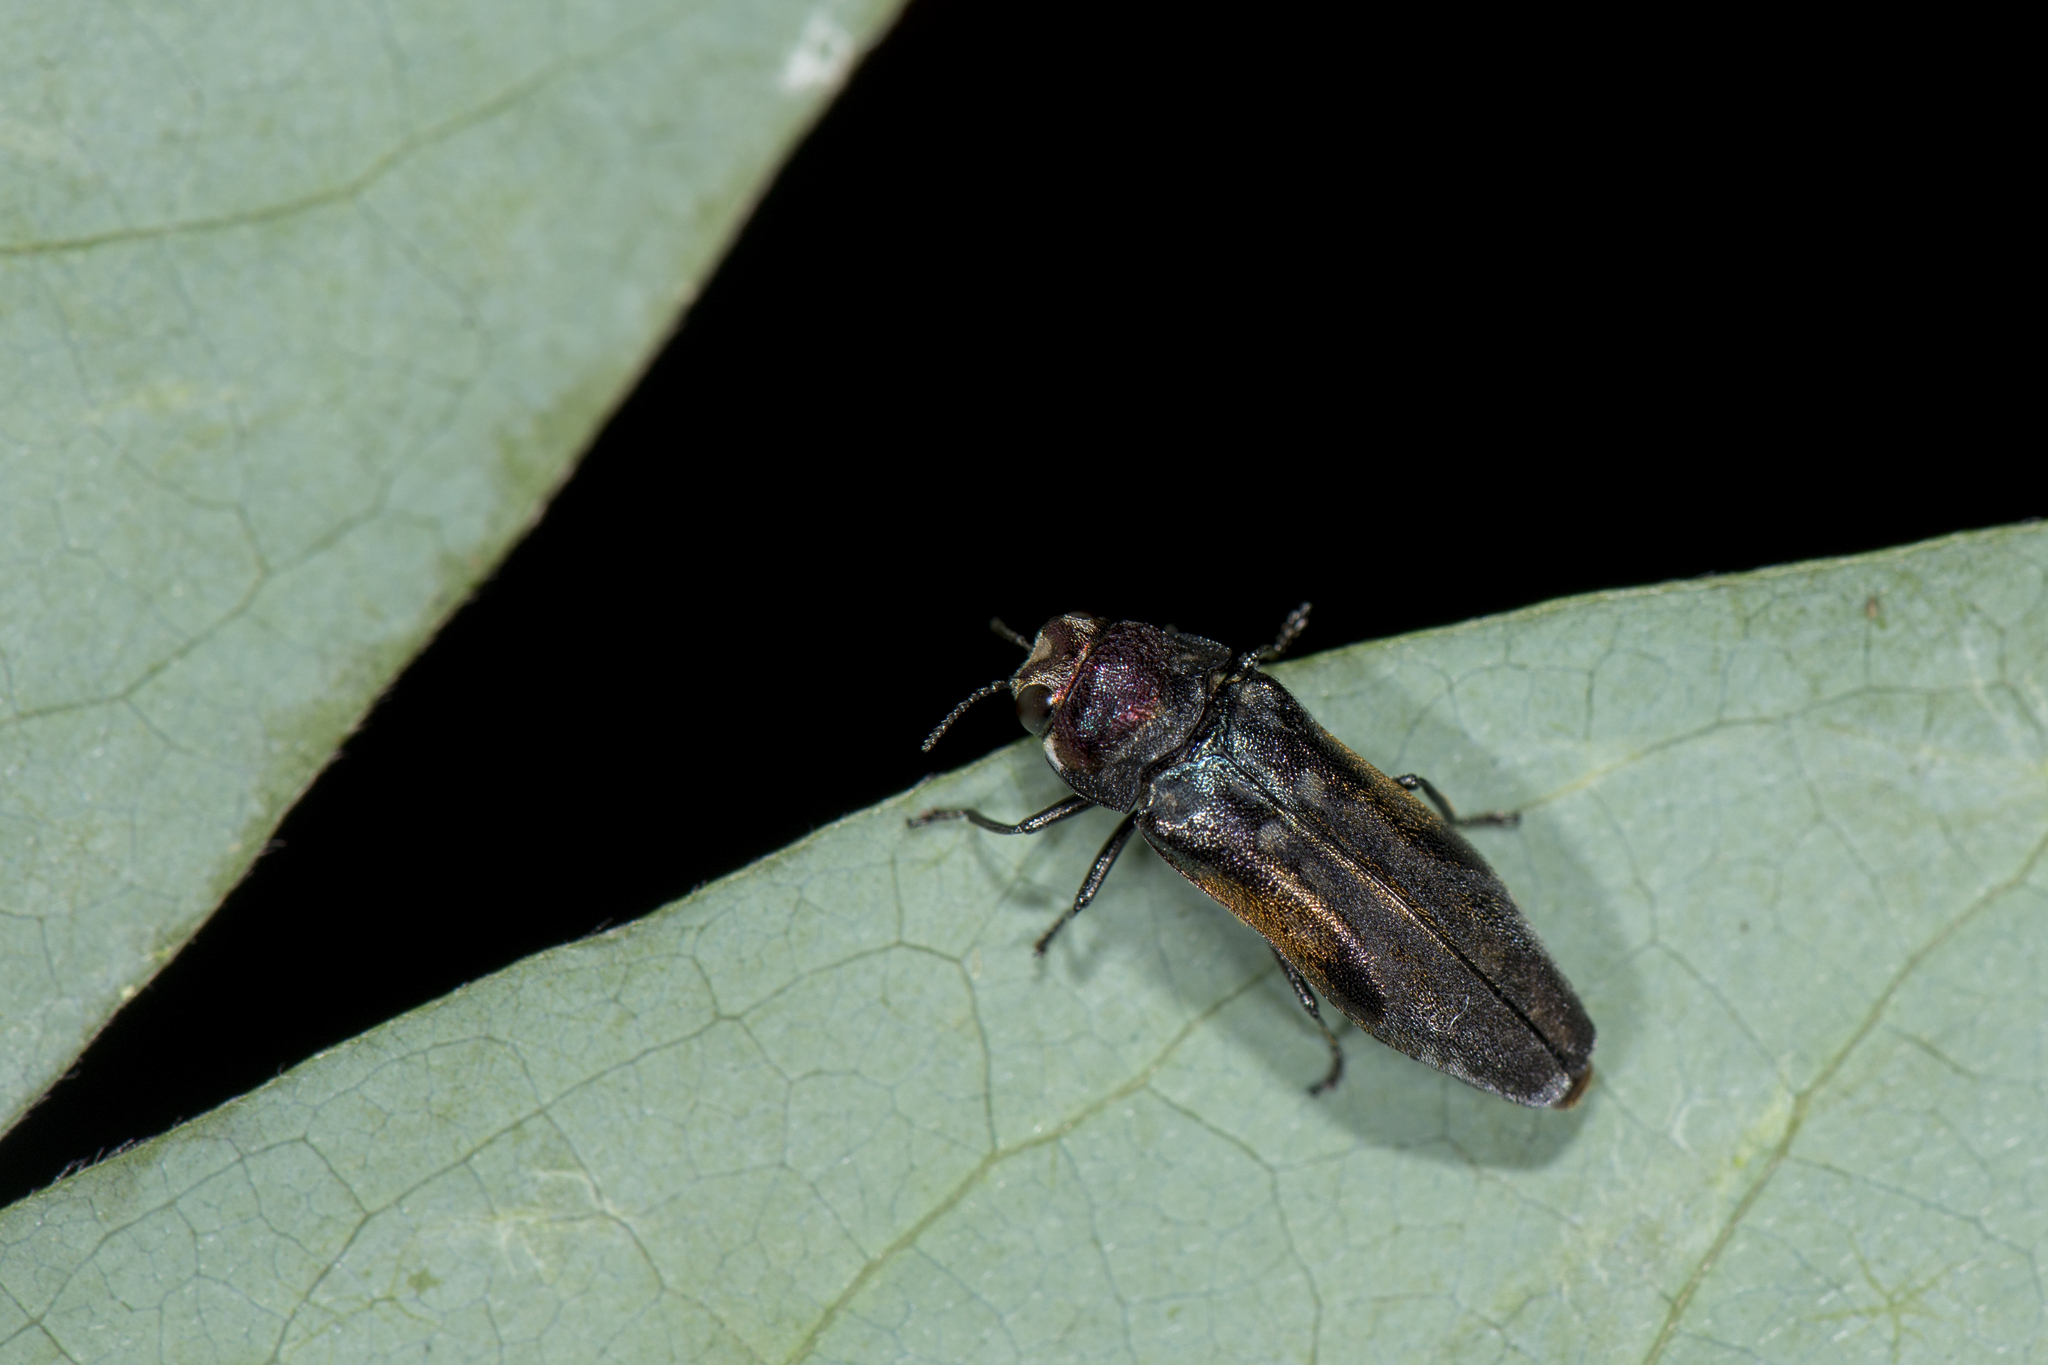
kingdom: Animalia
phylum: Arthropoda
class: Insecta
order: Coleoptera
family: Buprestidae
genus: Coraebus
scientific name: Coraebus linnei
